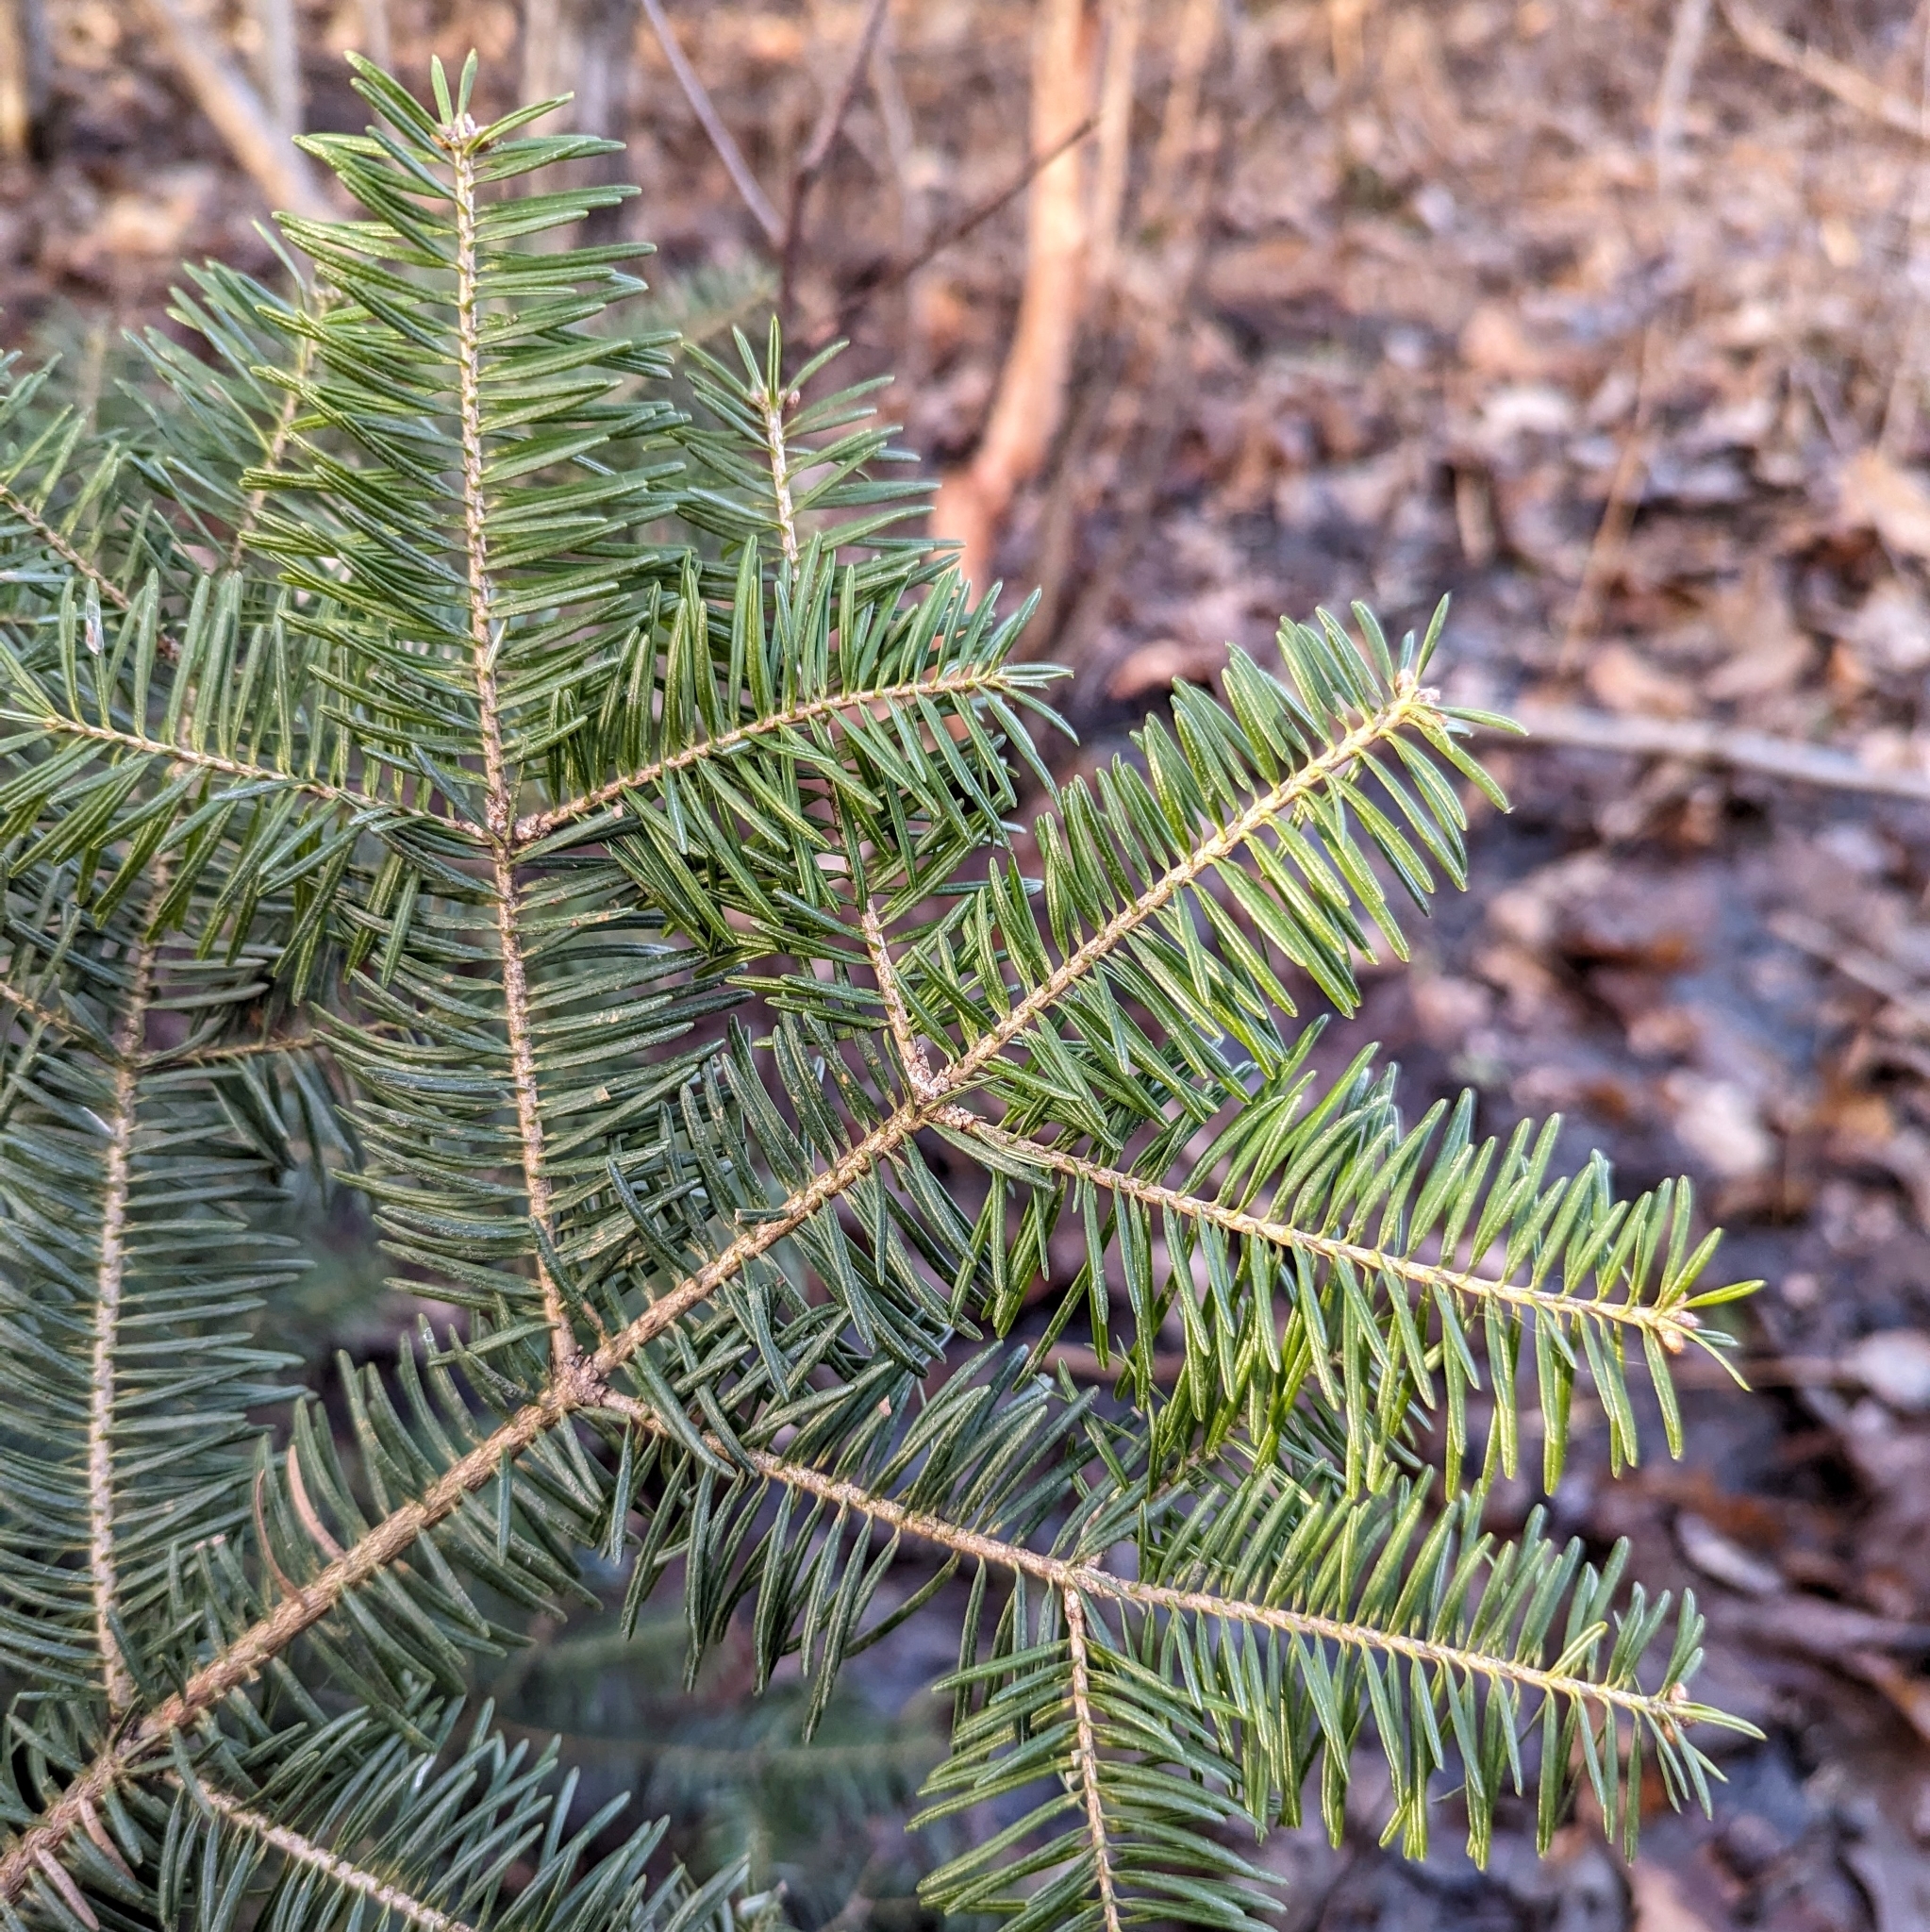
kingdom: Plantae
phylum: Tracheophyta
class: Pinopsida
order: Pinales
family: Pinaceae
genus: Abies
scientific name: Abies balsamea
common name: Balsam fir
